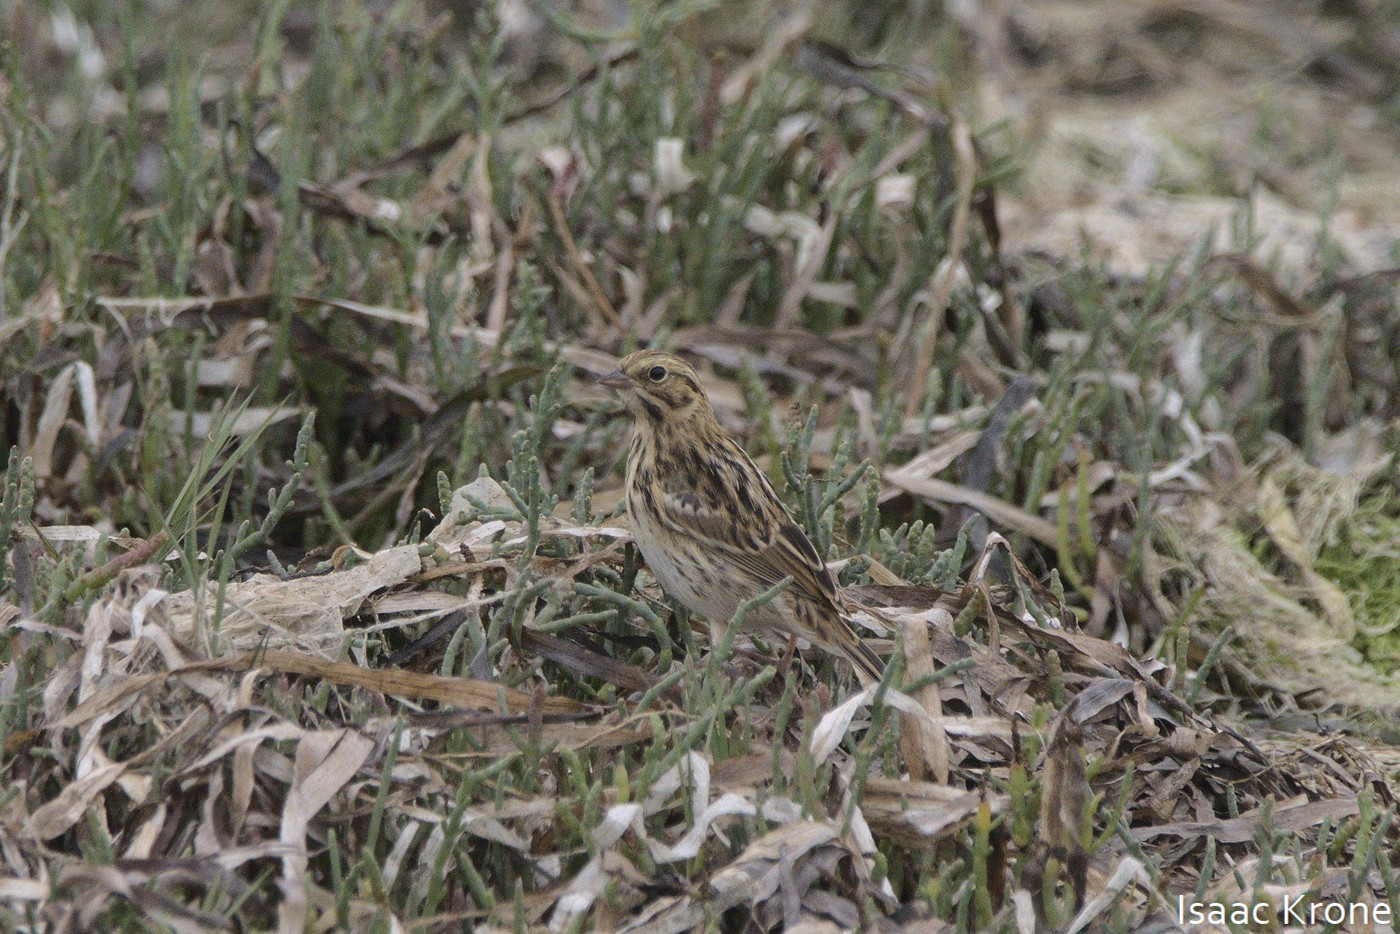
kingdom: Animalia
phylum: Chordata
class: Aves
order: Passeriformes
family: Passerellidae
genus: Passerculus
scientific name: Passerculus sandwichensis
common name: Savannah sparrow
